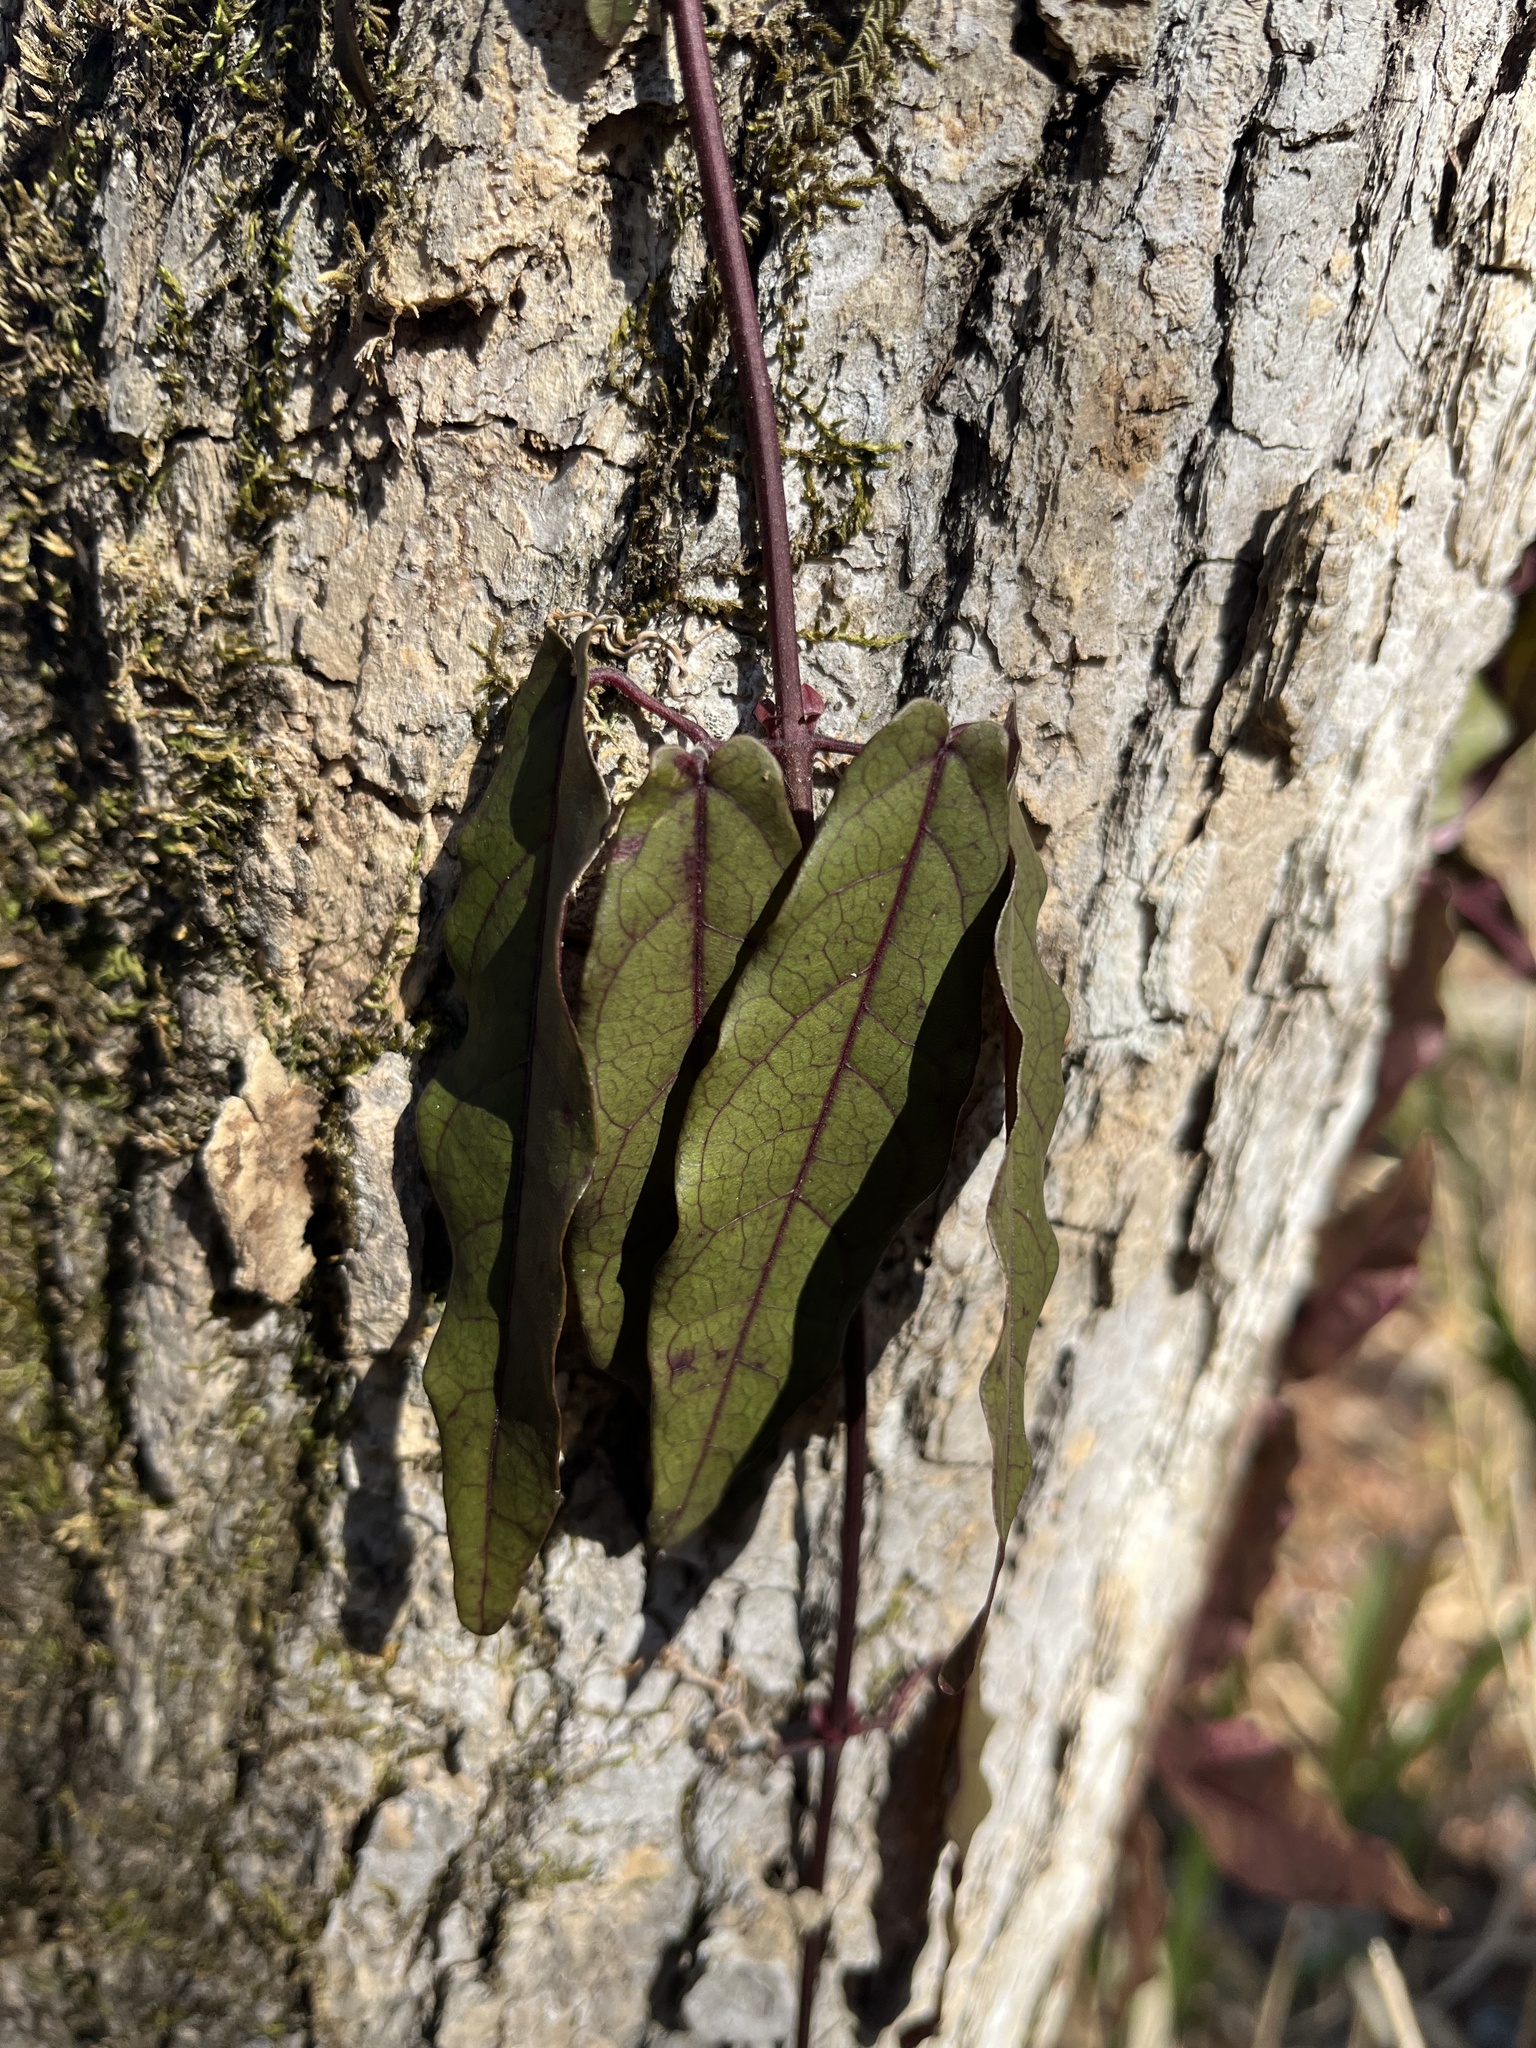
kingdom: Plantae
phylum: Tracheophyta
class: Magnoliopsida
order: Lamiales
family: Bignoniaceae
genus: Bignonia
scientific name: Bignonia capreolata
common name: Crossvine
